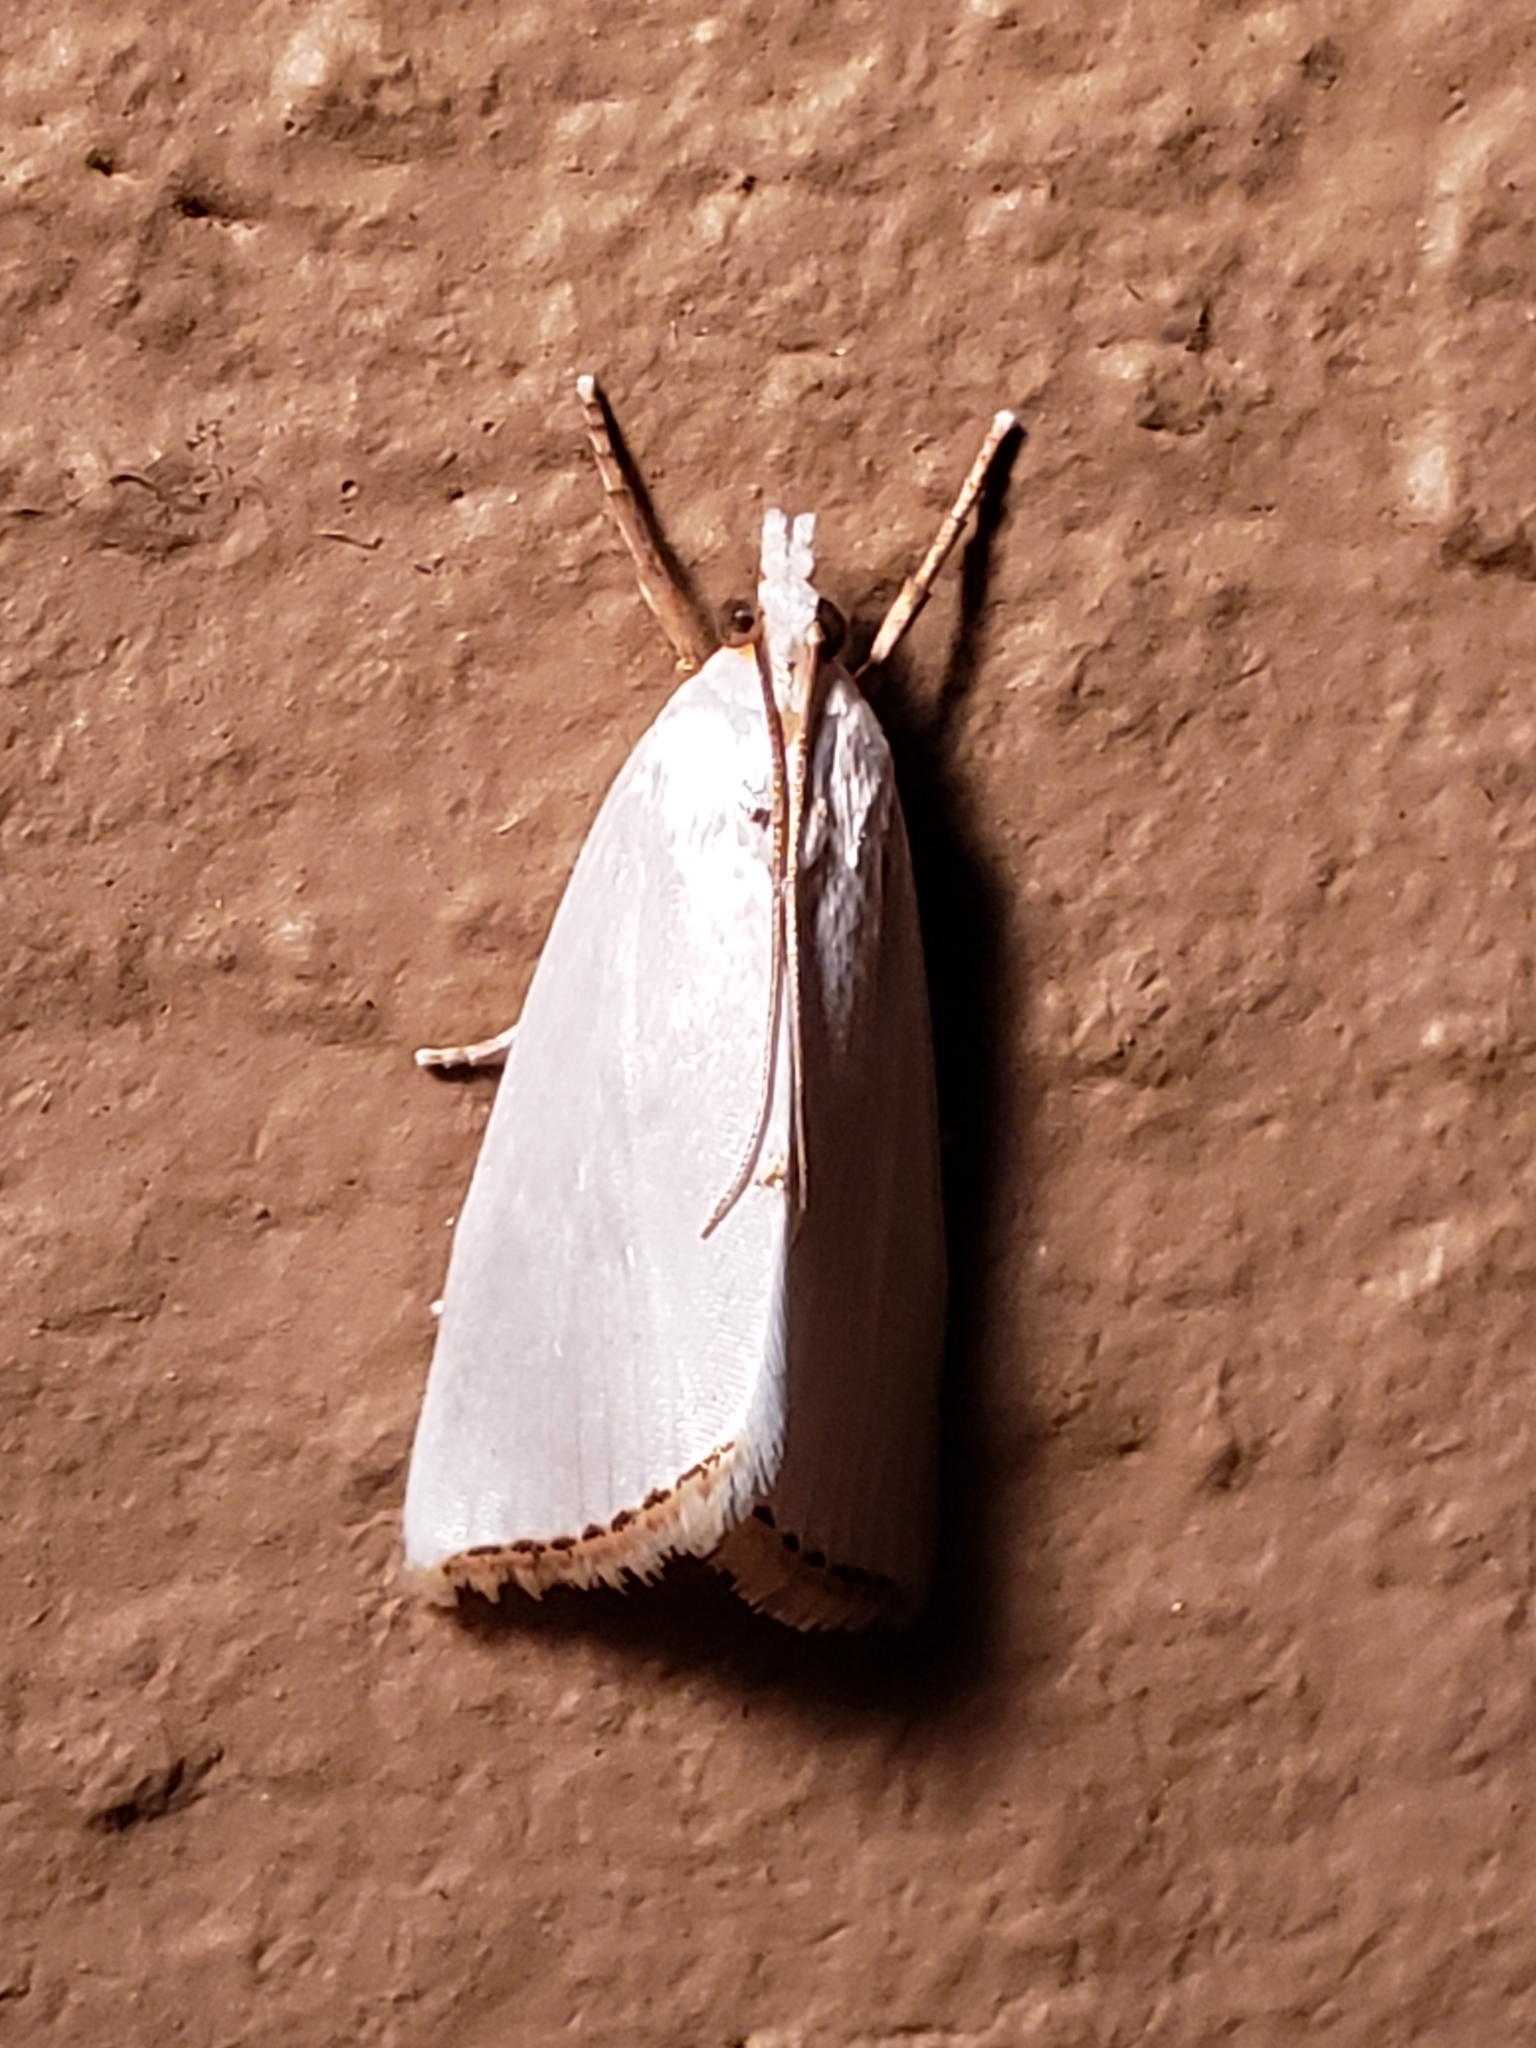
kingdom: Animalia
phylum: Arthropoda
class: Insecta
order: Lepidoptera
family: Crambidae
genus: Argyria
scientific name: Argyria nivalis
